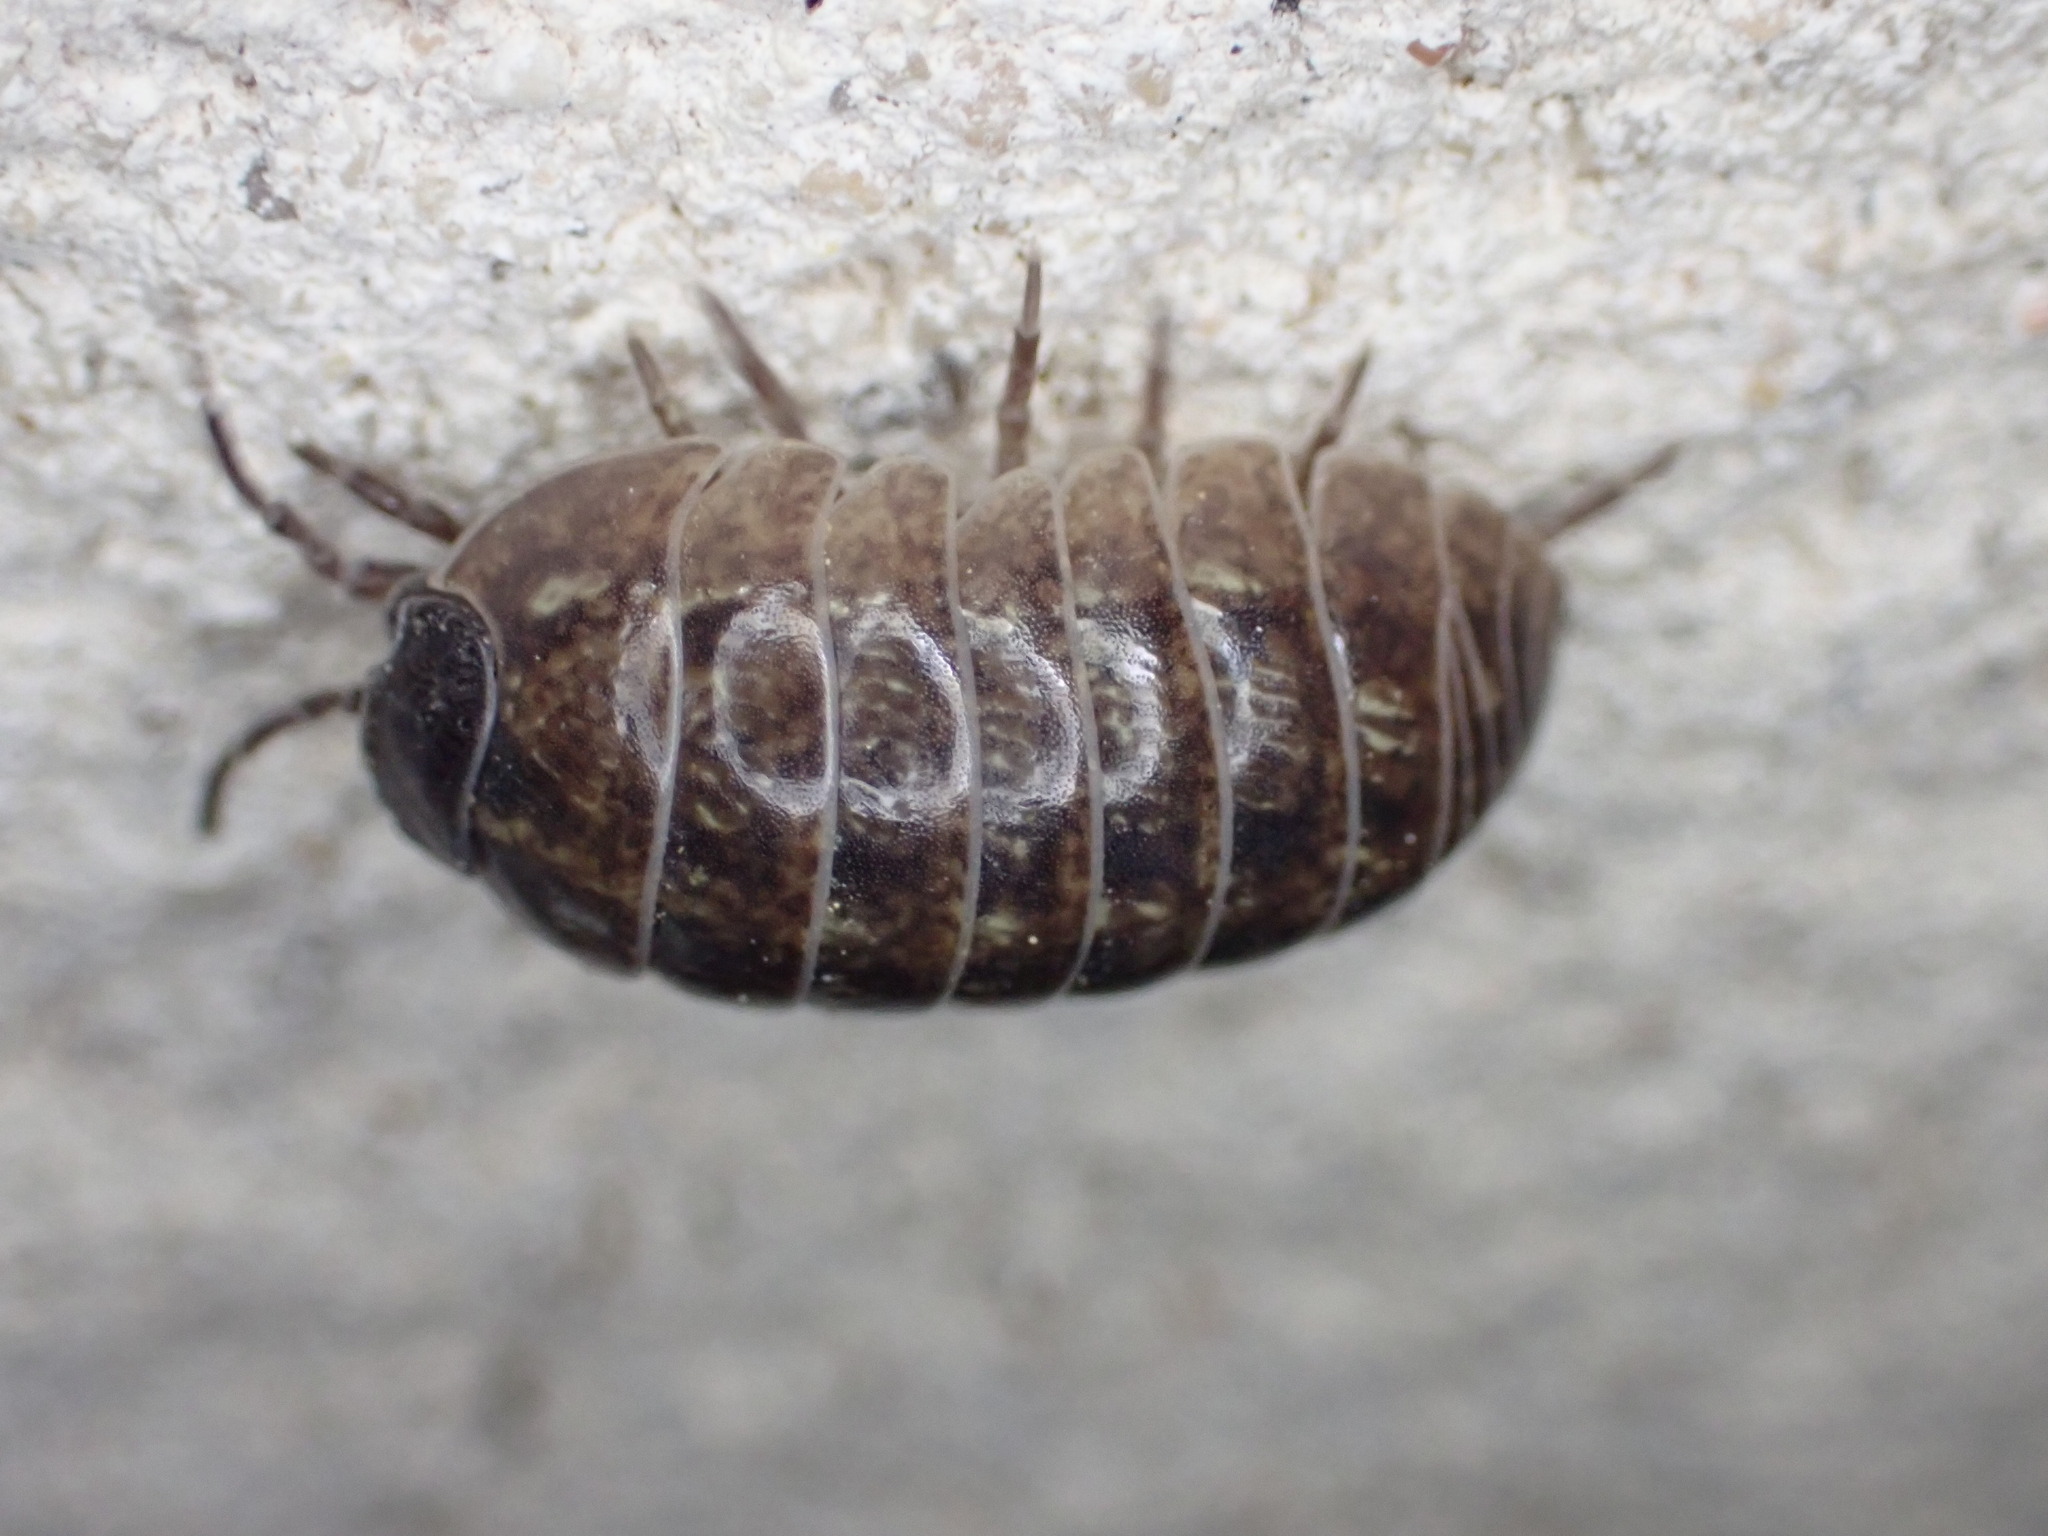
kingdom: Animalia
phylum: Arthropoda
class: Malacostraca
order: Isopoda
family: Armadillidiidae
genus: Armadillidium
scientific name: Armadillidium vulgare
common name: Common pill woodlouse
